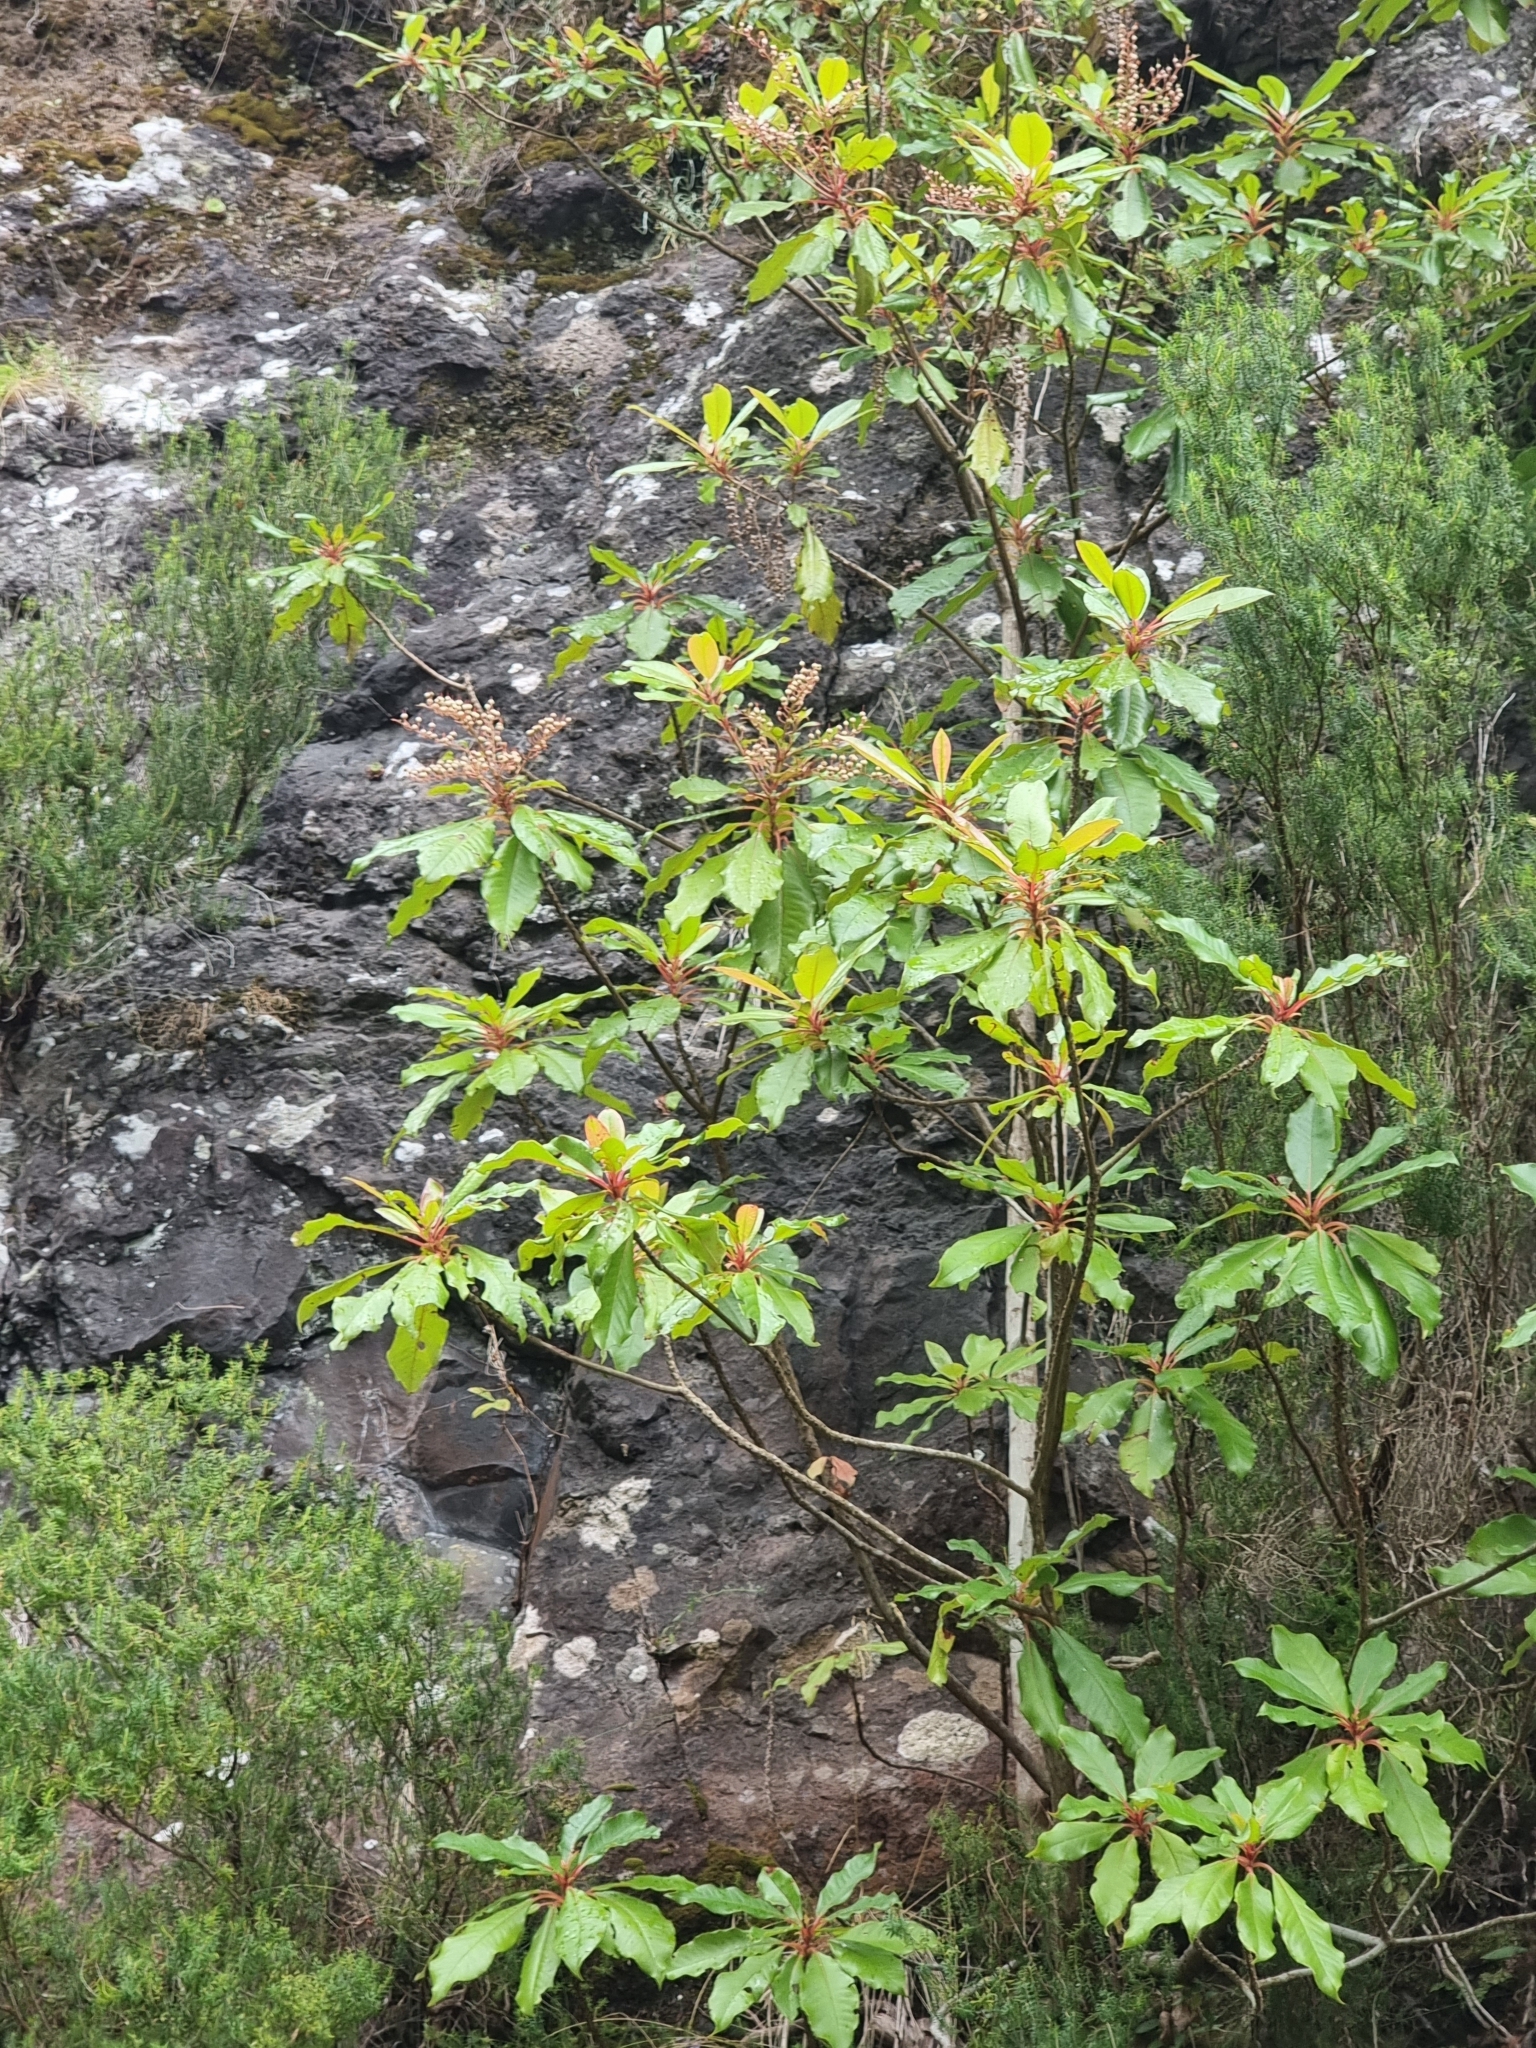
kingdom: Plantae
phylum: Tracheophyta
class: Magnoliopsida
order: Ericales
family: Clethraceae
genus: Clethra
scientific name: Clethra arborea
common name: Lily-of-the-valley-tree
